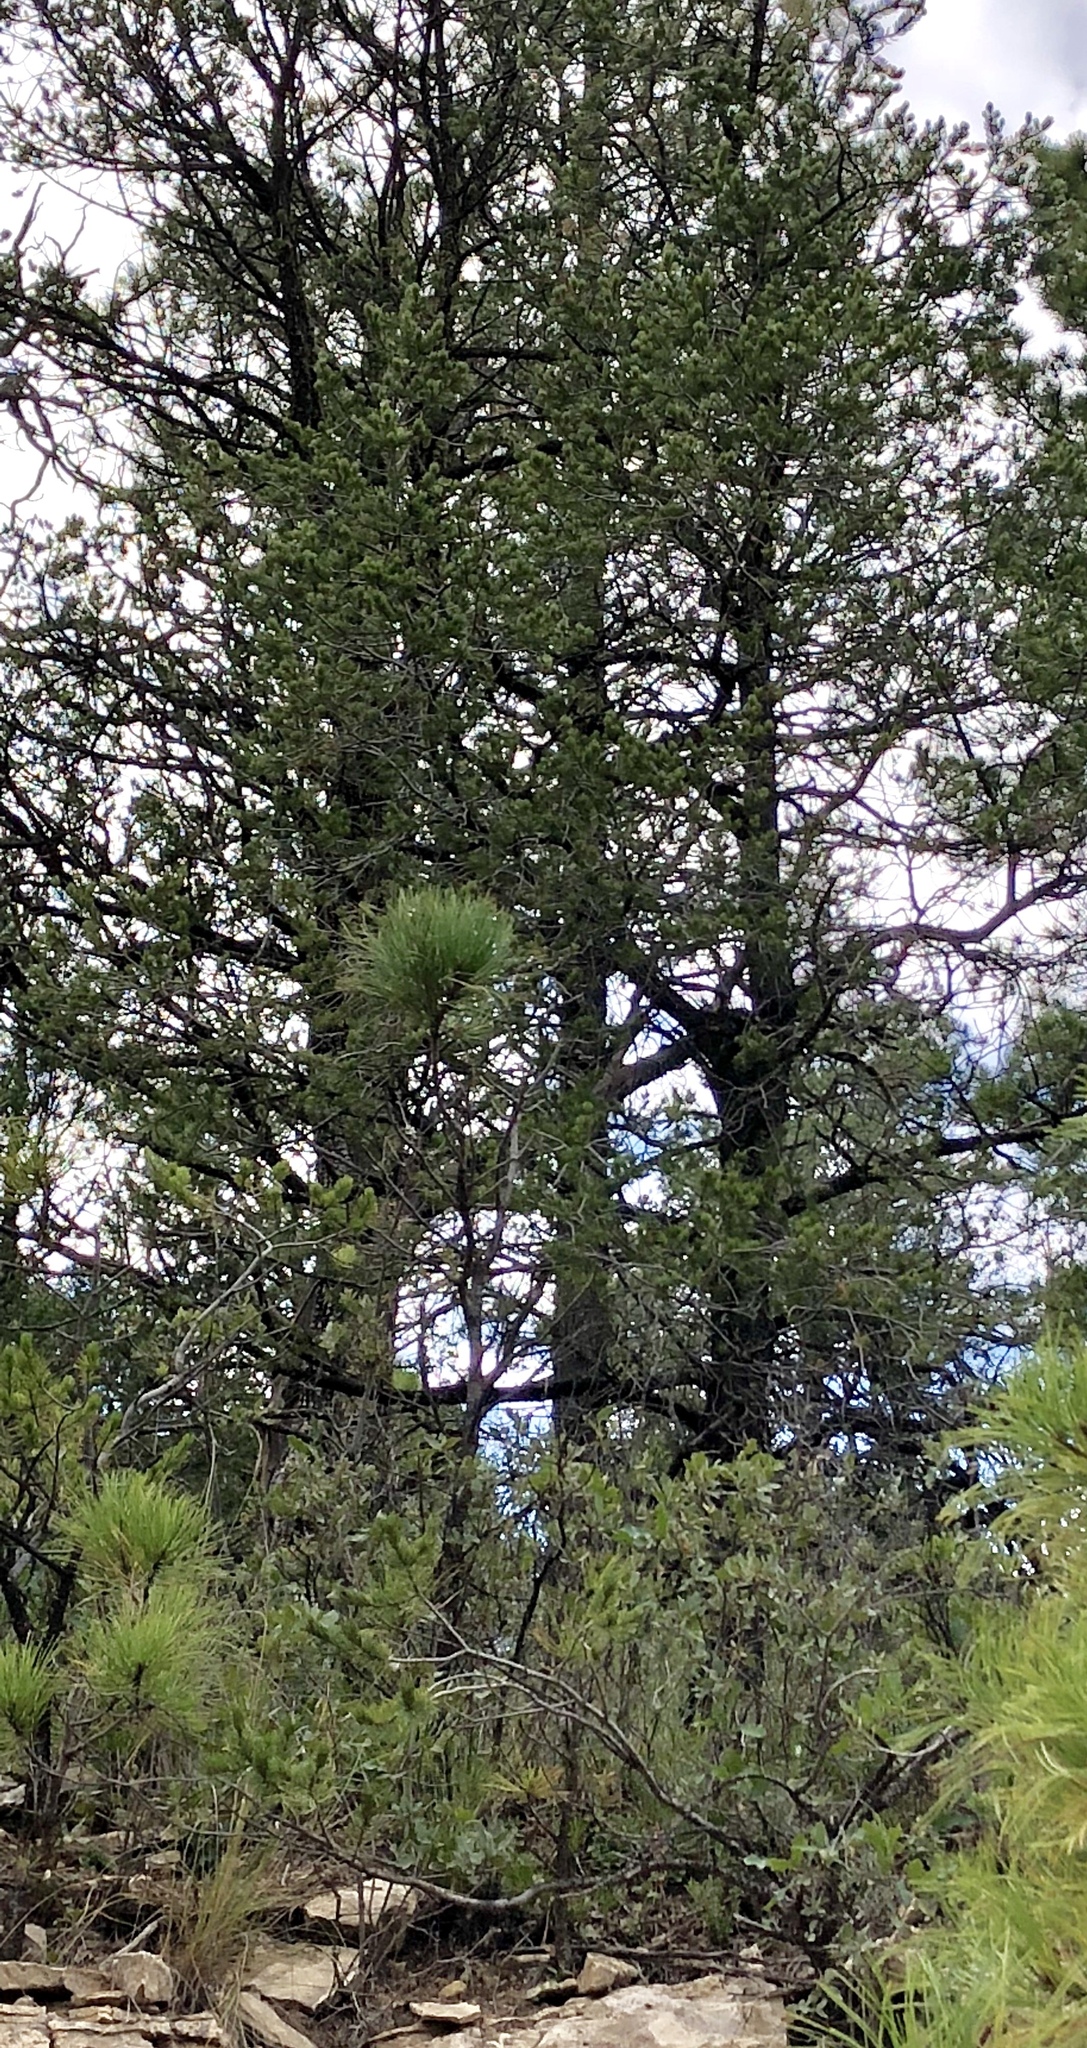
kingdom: Plantae
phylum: Tracheophyta
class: Pinopsida
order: Pinales
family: Pinaceae
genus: Pinus
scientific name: Pinus edulis
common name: Colorado pinyon
